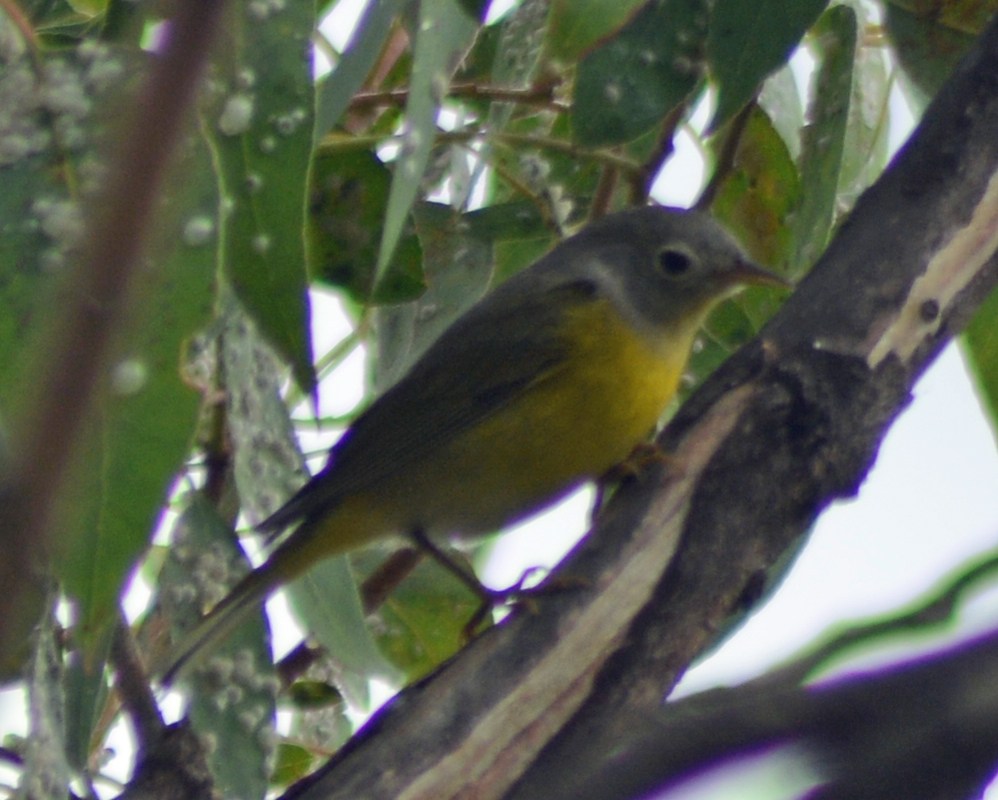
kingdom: Animalia
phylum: Chordata
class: Aves
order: Passeriformes
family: Parulidae
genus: Leiothlypis
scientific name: Leiothlypis ruficapilla
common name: Nashville warbler
